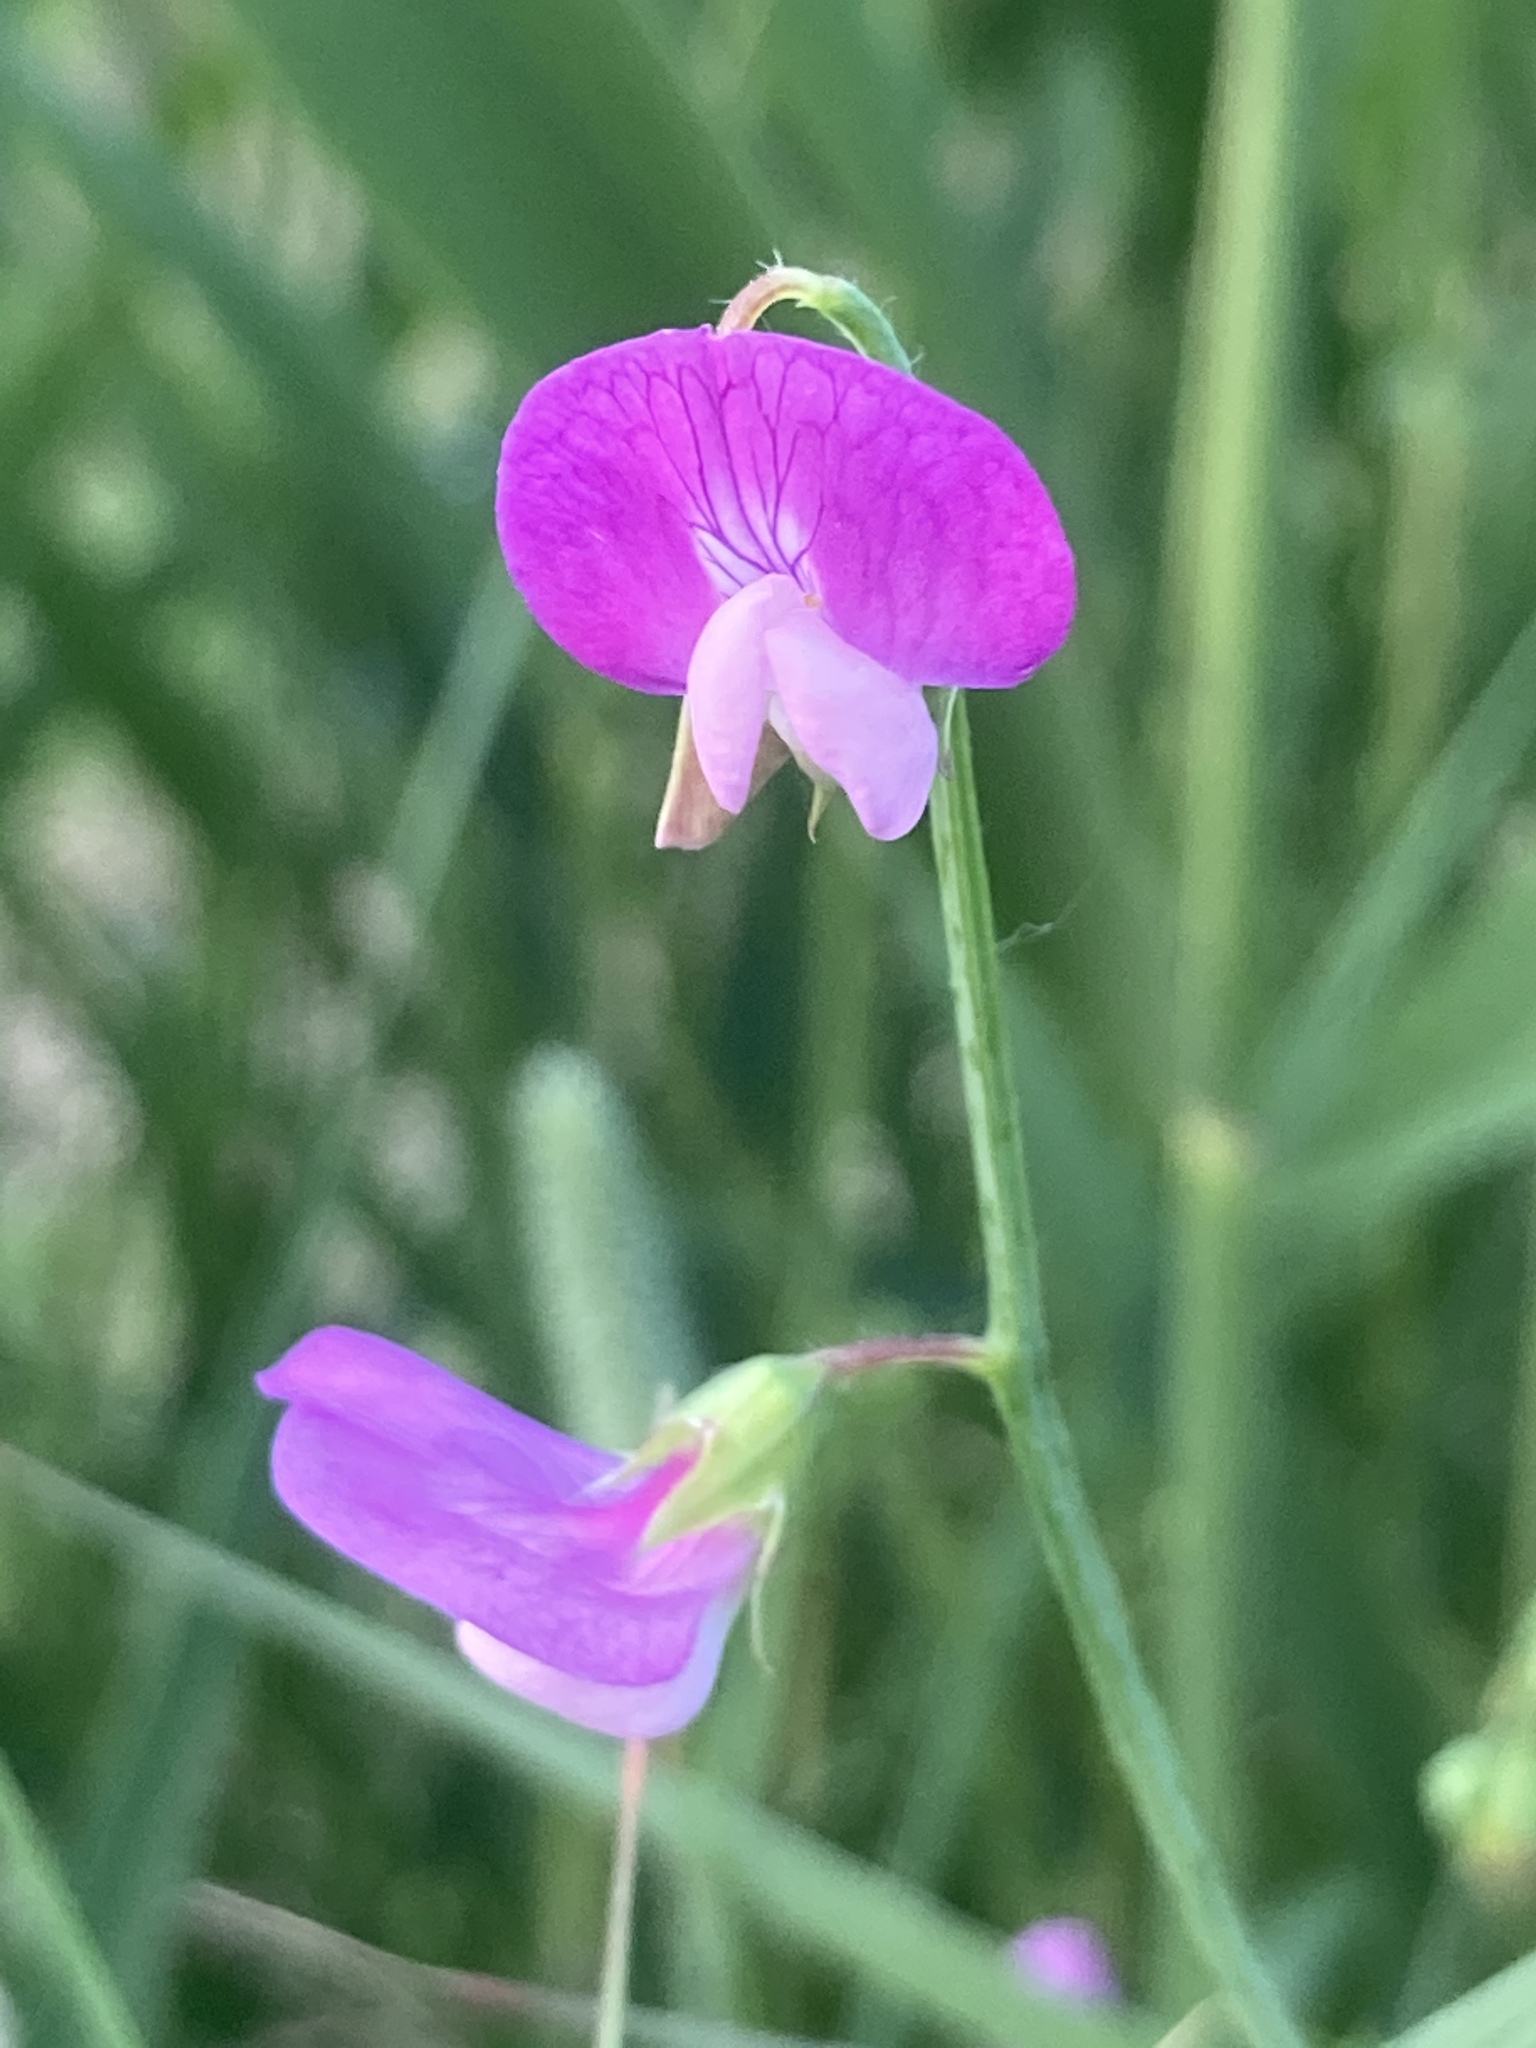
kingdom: Plantae
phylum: Tracheophyta
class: Magnoliopsida
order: Fabales
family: Fabaceae
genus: Lathyrus
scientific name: Lathyrus hirsutus
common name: Hairy vetchling
